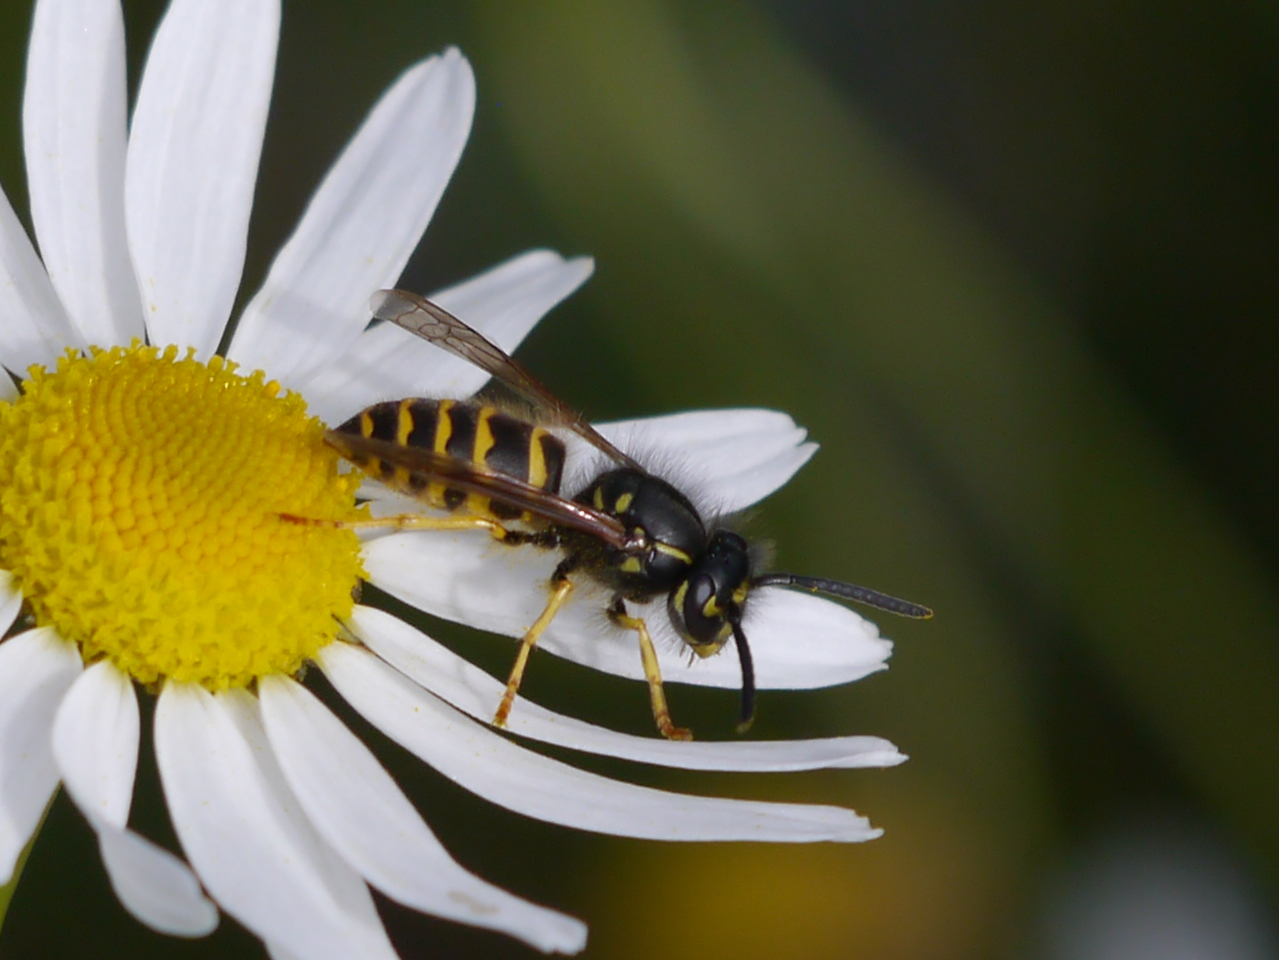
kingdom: Animalia
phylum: Arthropoda
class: Insecta
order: Hymenoptera
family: Vespidae
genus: Vespula
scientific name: Vespula alascensis
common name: Alaska yellowjacket
